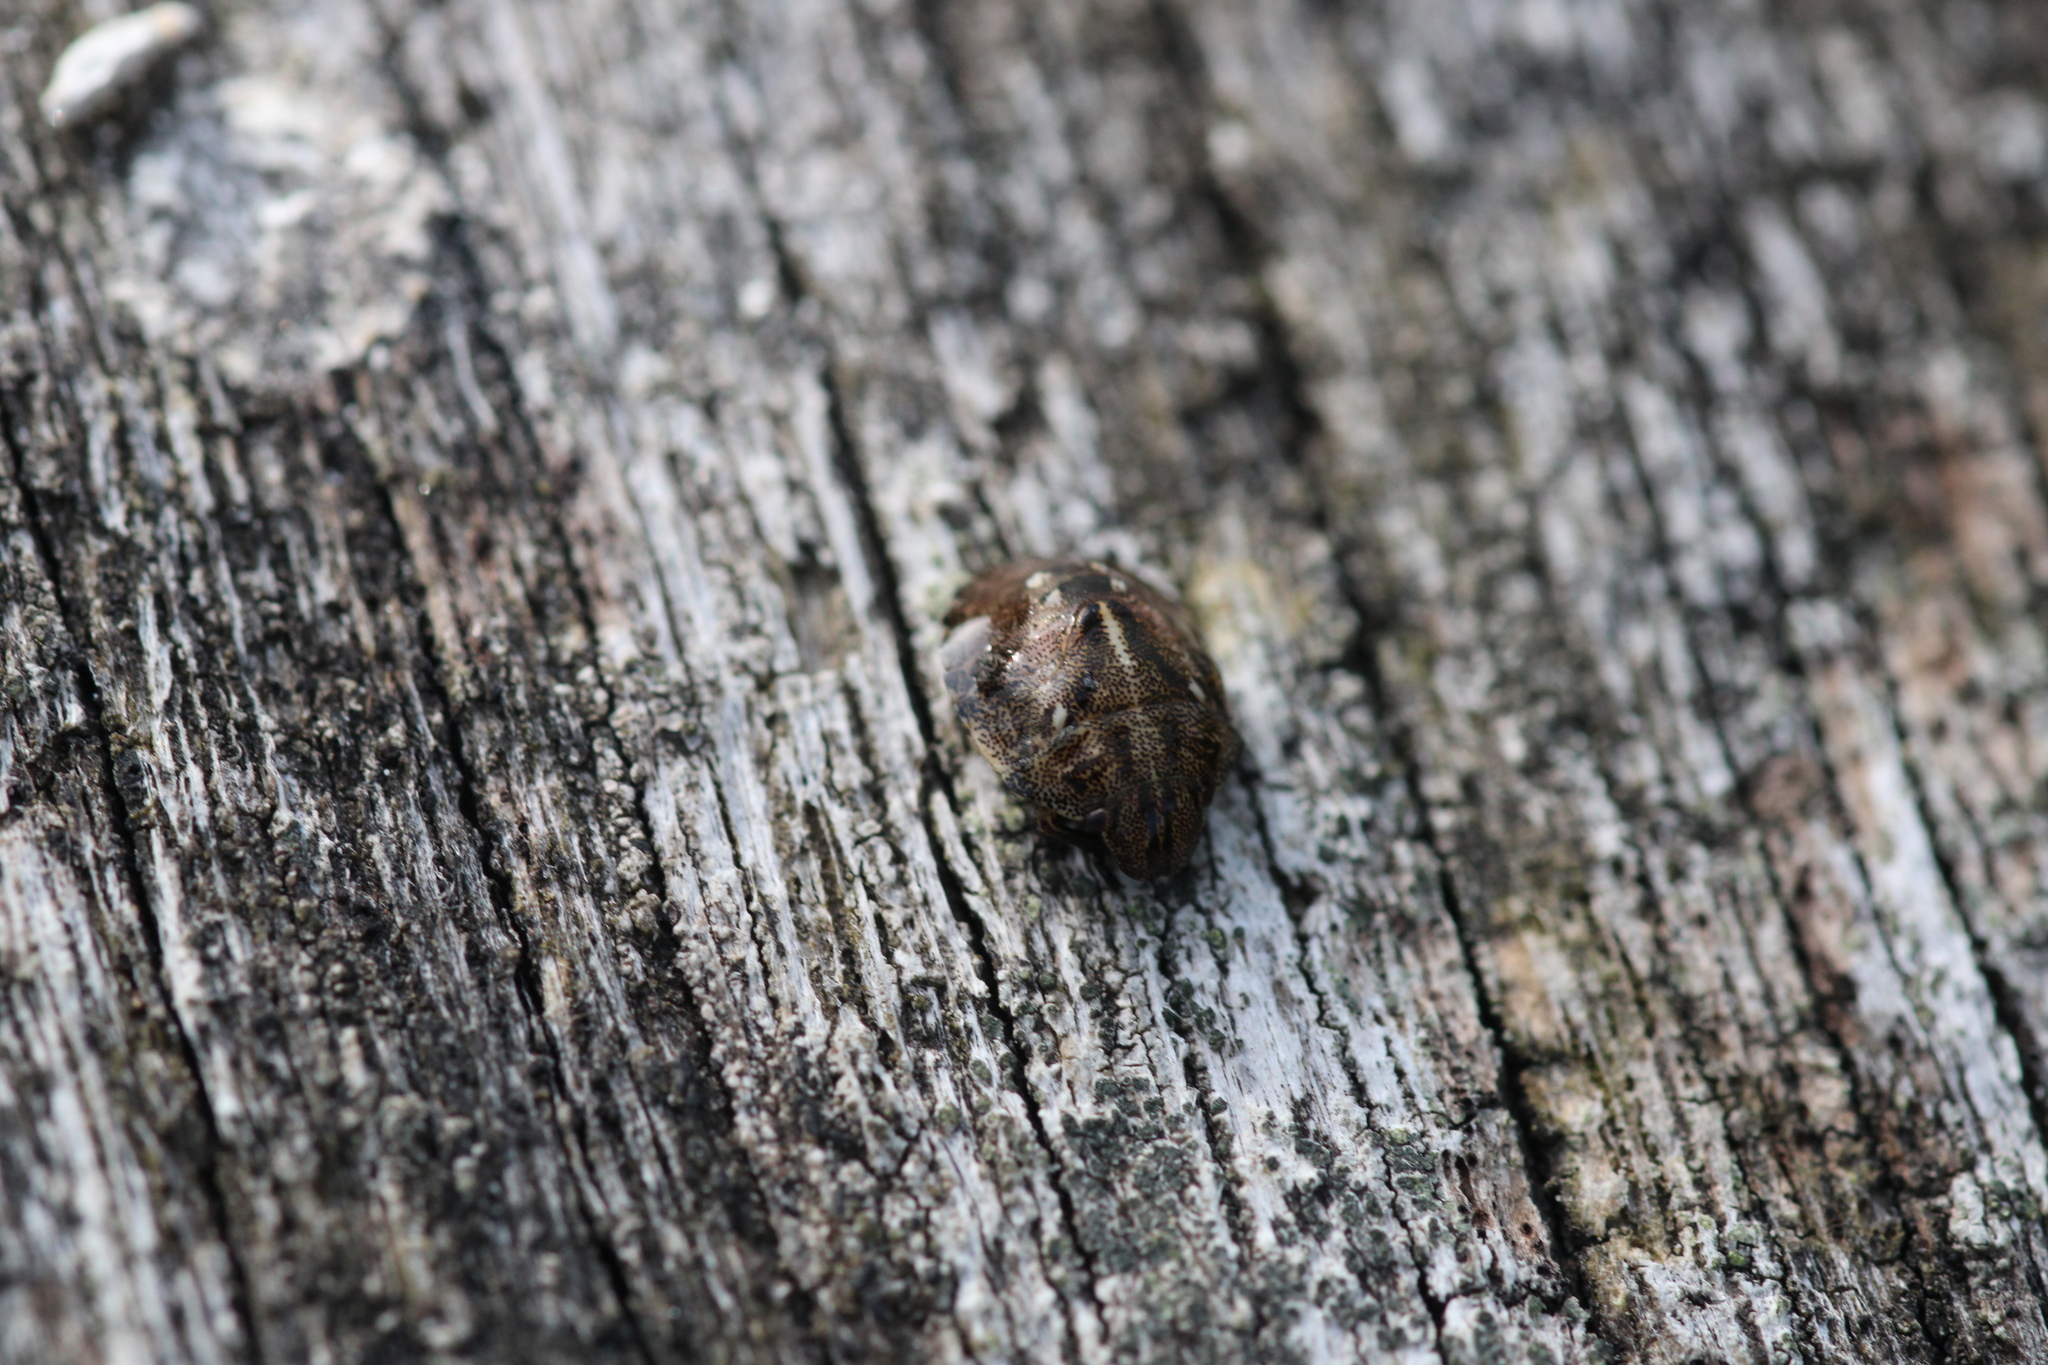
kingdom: Animalia
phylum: Arthropoda
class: Insecta
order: Hemiptera
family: Scutelleridae
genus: Eurygaster
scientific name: Eurygaster testudinaria
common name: Tortoise bug
